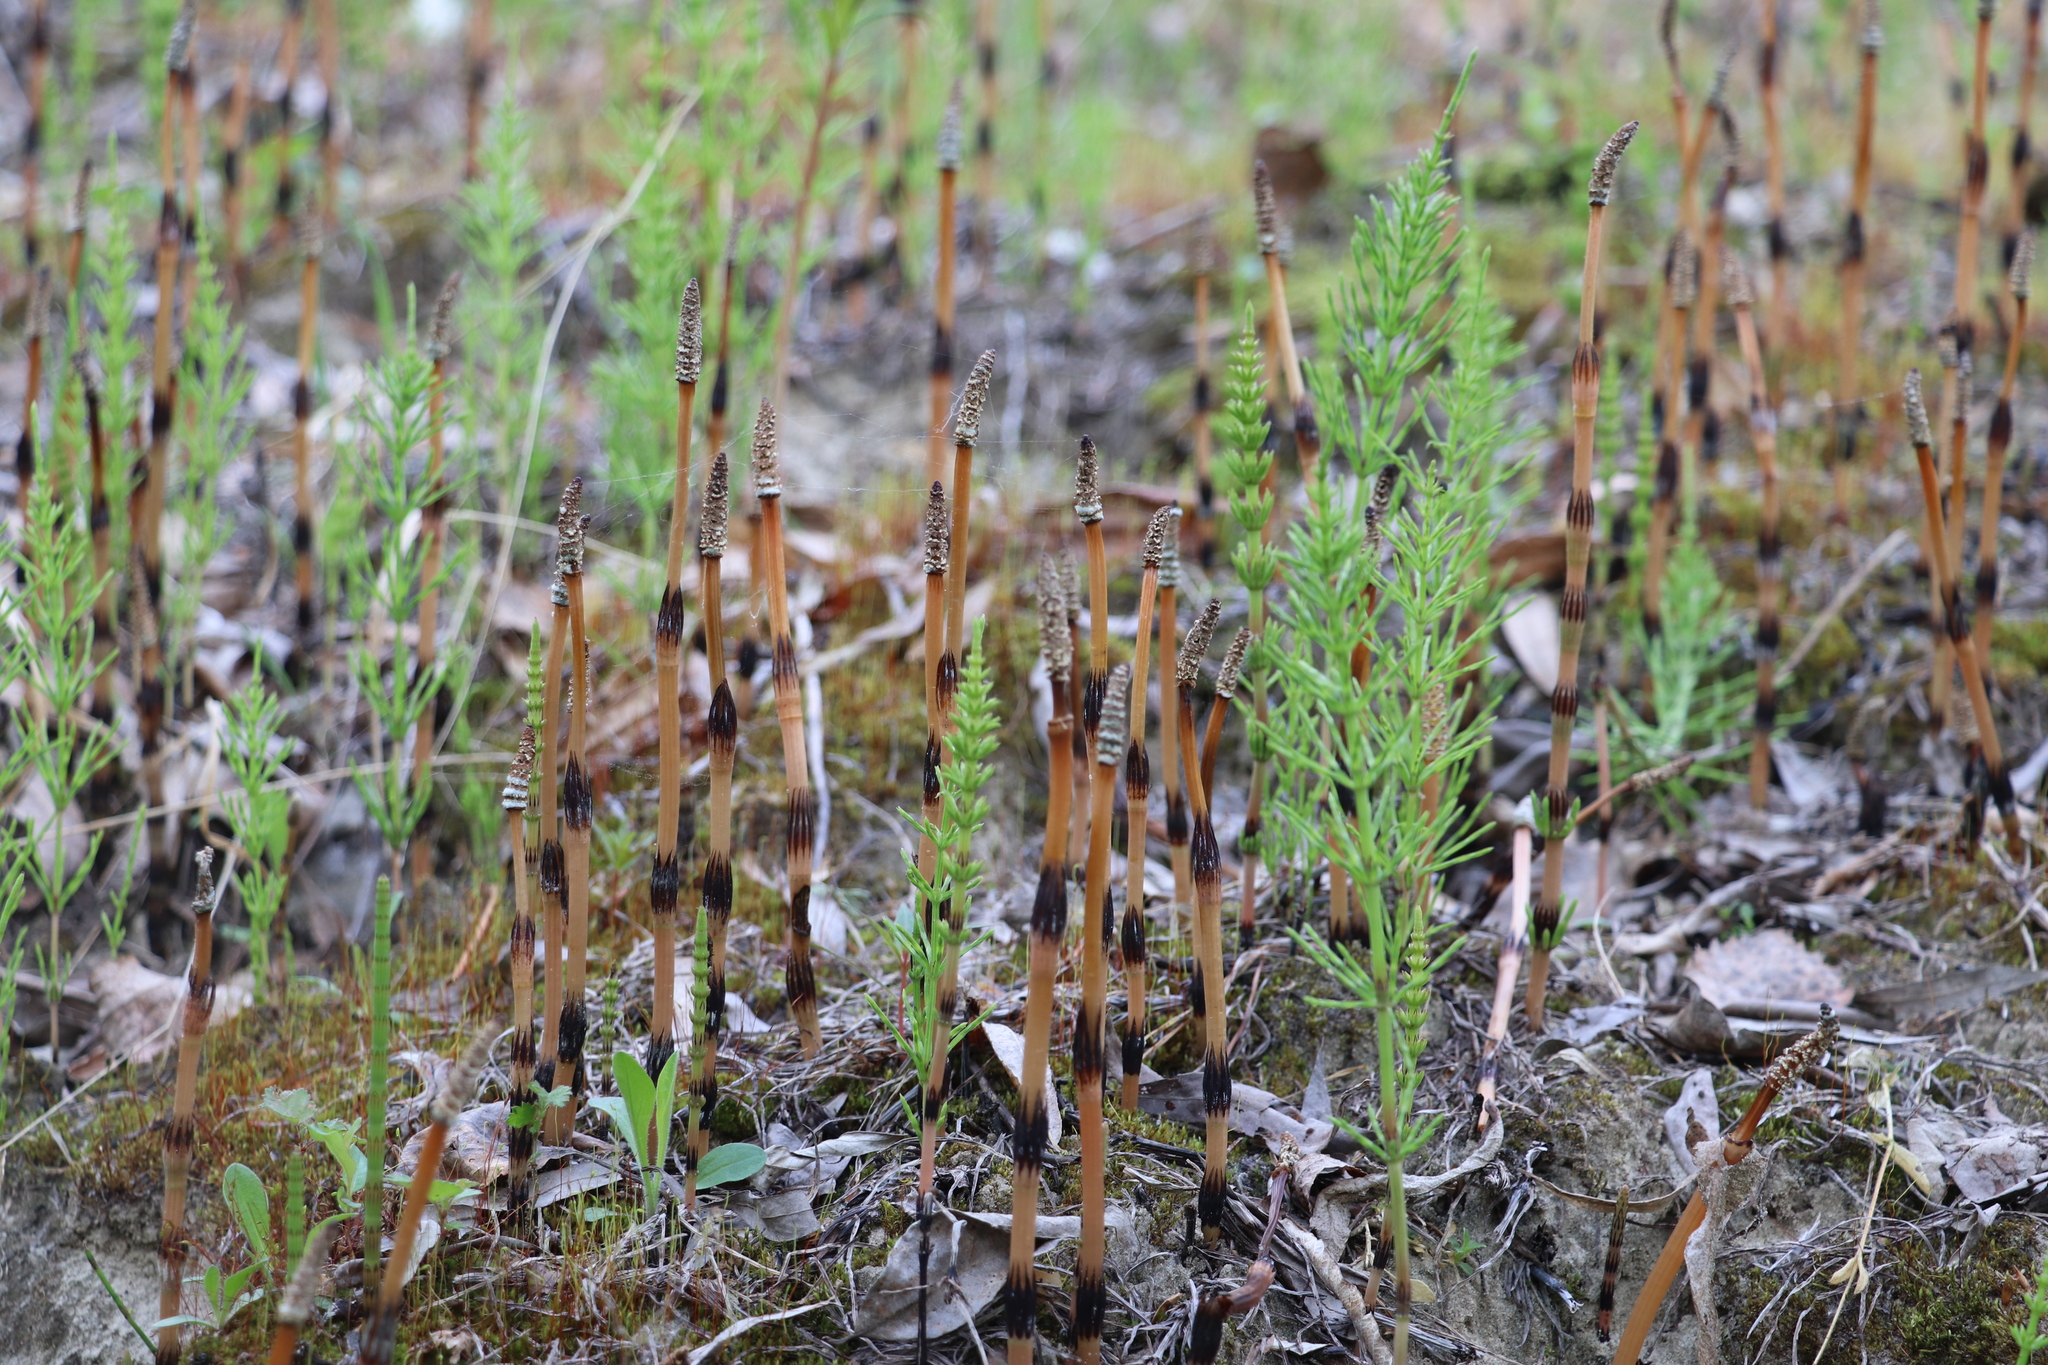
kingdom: Plantae
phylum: Tracheophyta
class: Polypodiopsida
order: Equisetales
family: Equisetaceae
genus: Equisetum
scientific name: Equisetum arvense
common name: Field horsetail
